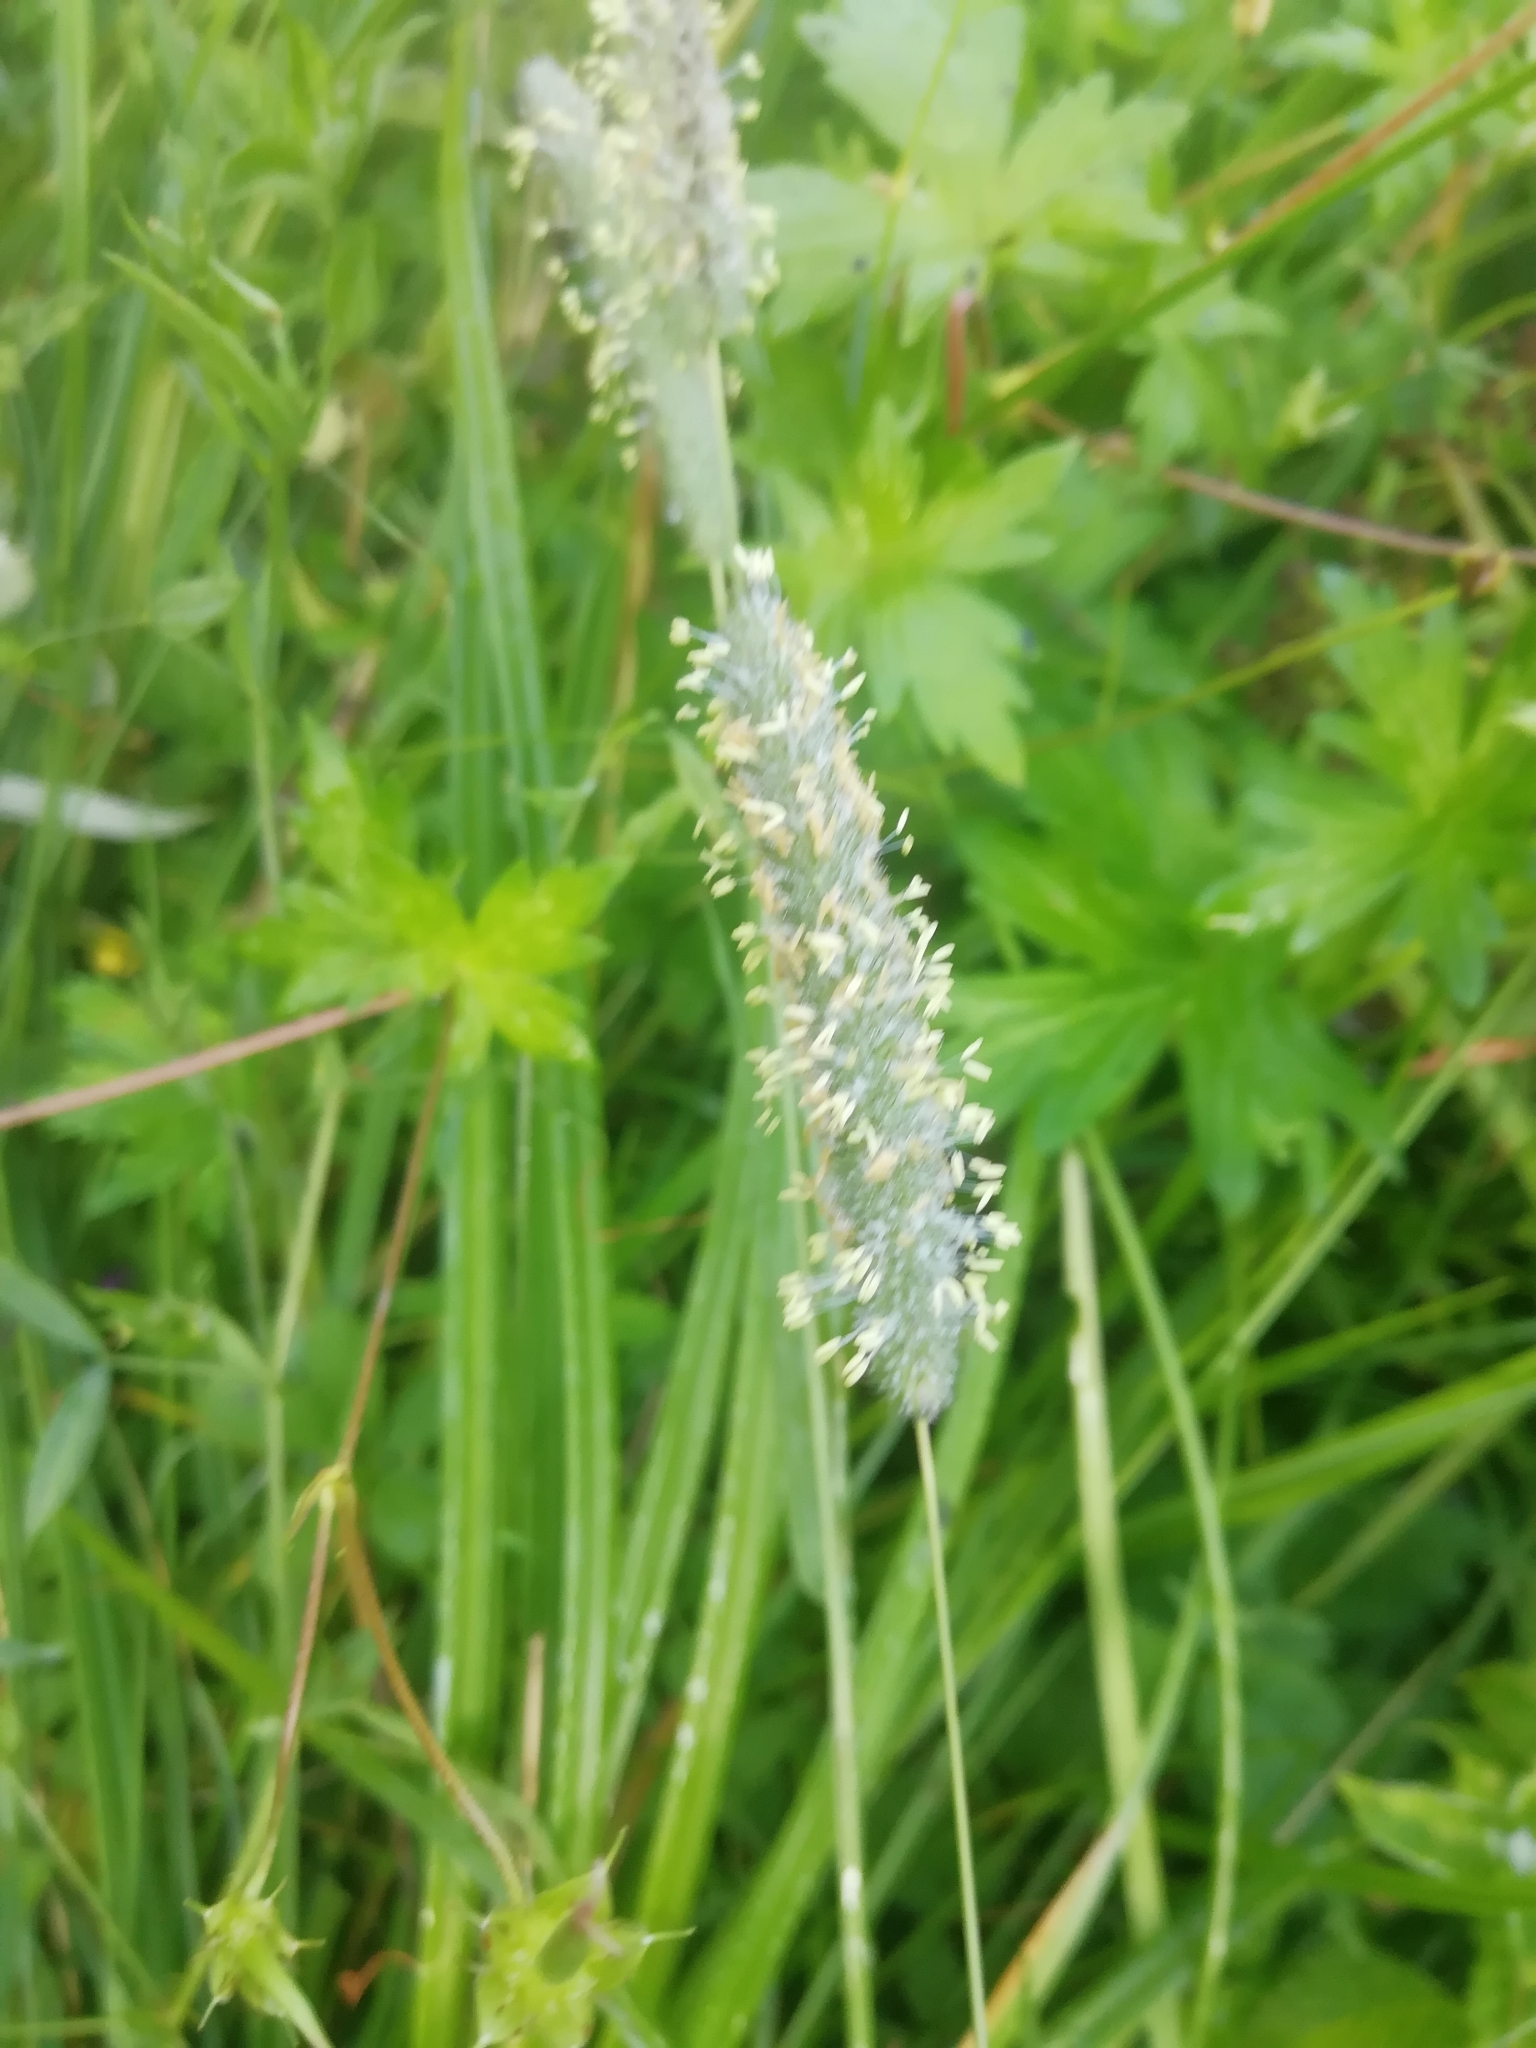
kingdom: Plantae
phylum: Tracheophyta
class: Liliopsida
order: Poales
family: Poaceae
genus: Phleum
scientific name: Phleum pratense
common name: Timothy grass
